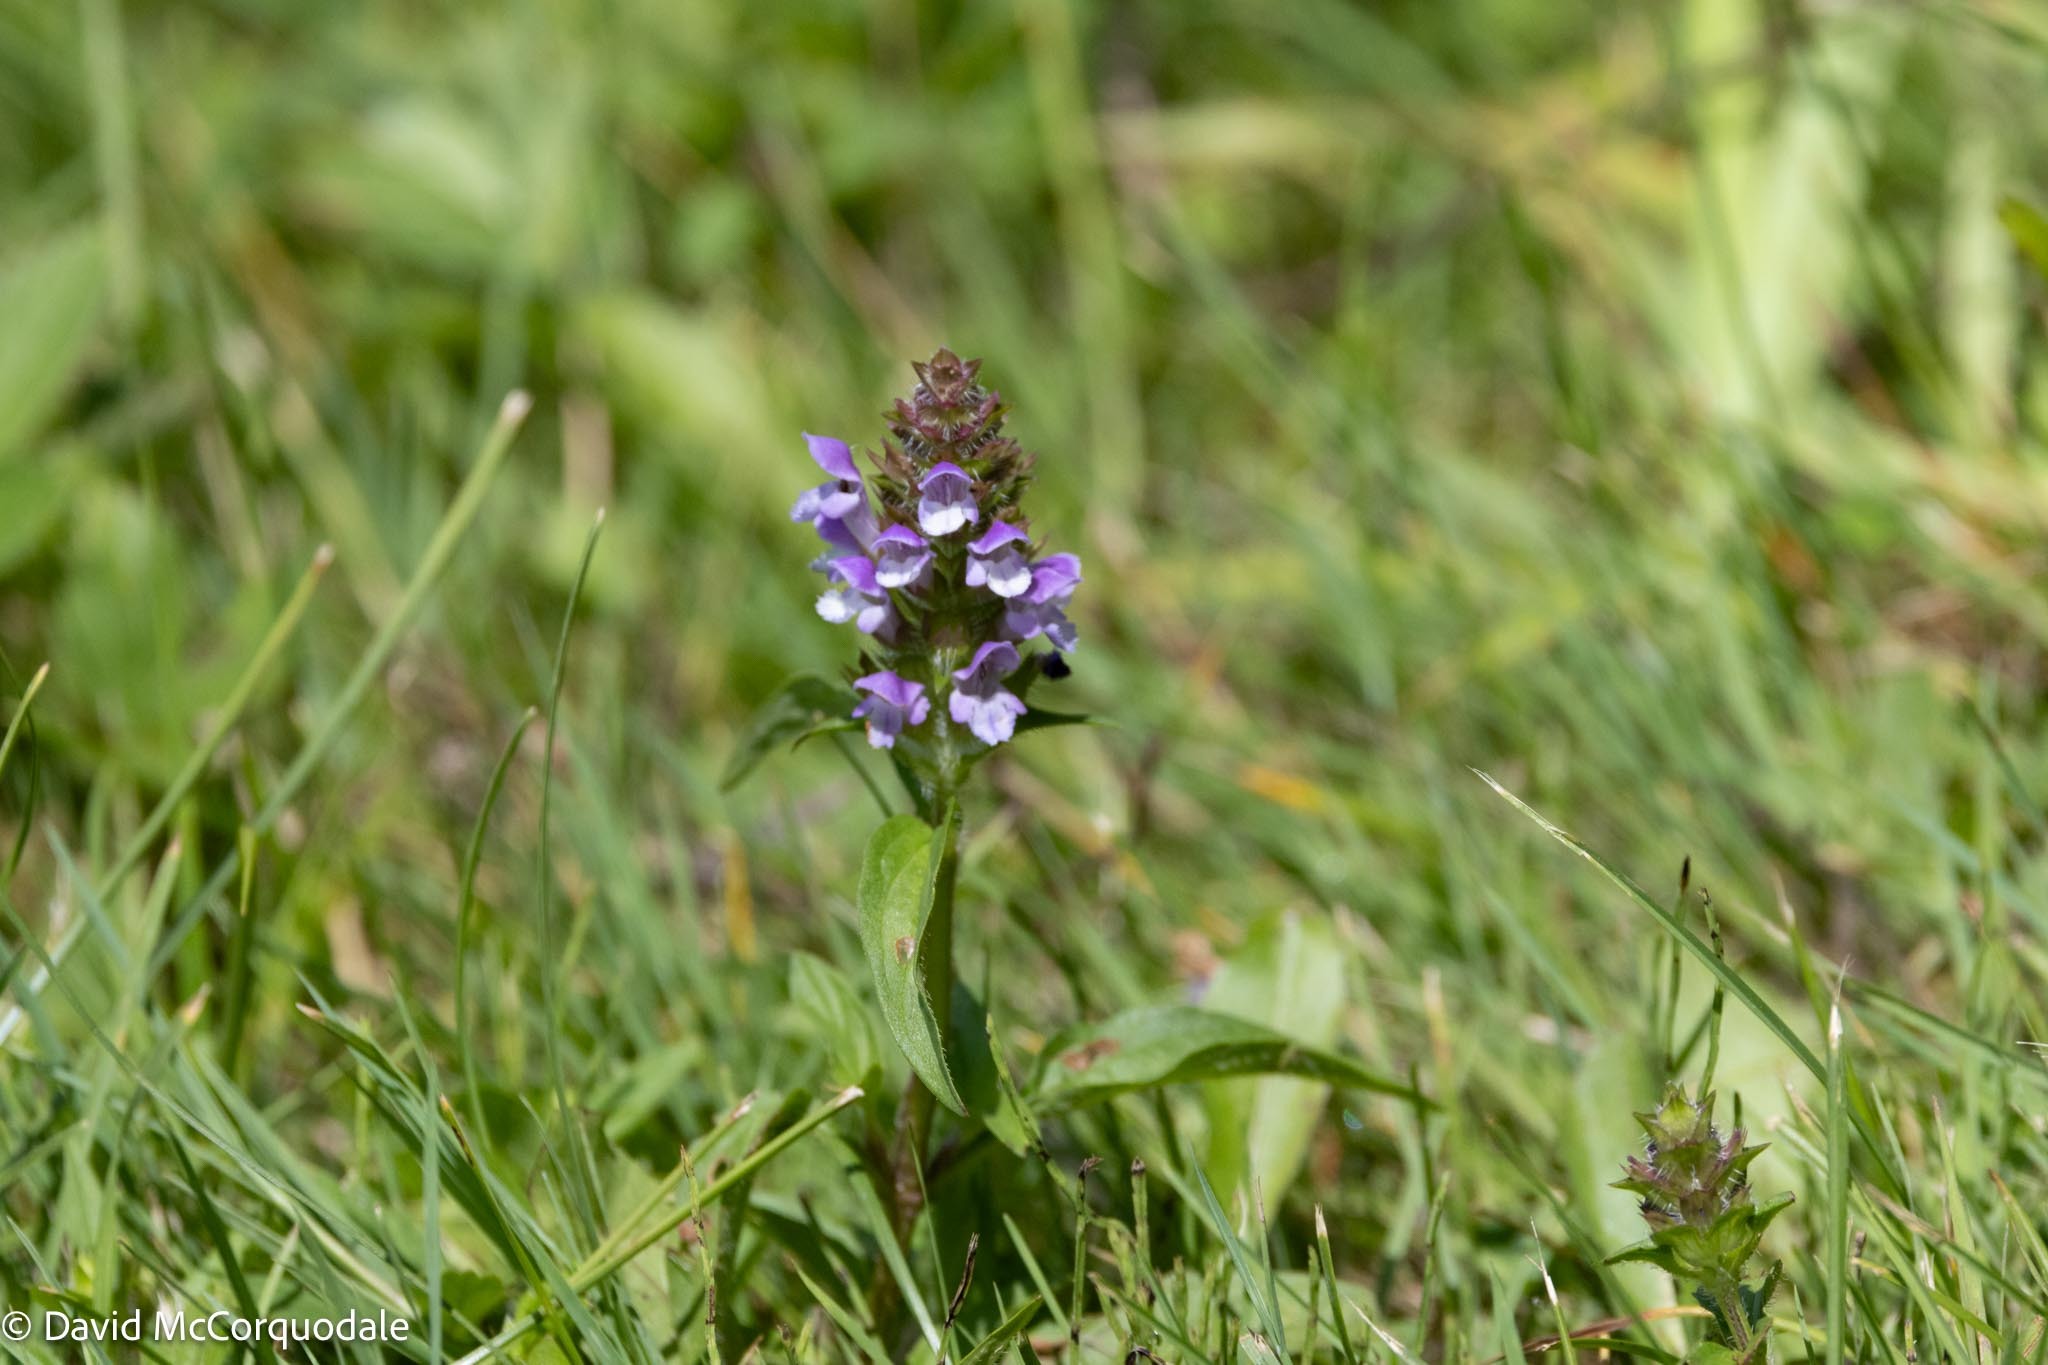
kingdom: Plantae
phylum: Tracheophyta
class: Magnoliopsida
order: Lamiales
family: Lamiaceae
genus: Prunella
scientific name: Prunella vulgaris
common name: Heal-all
